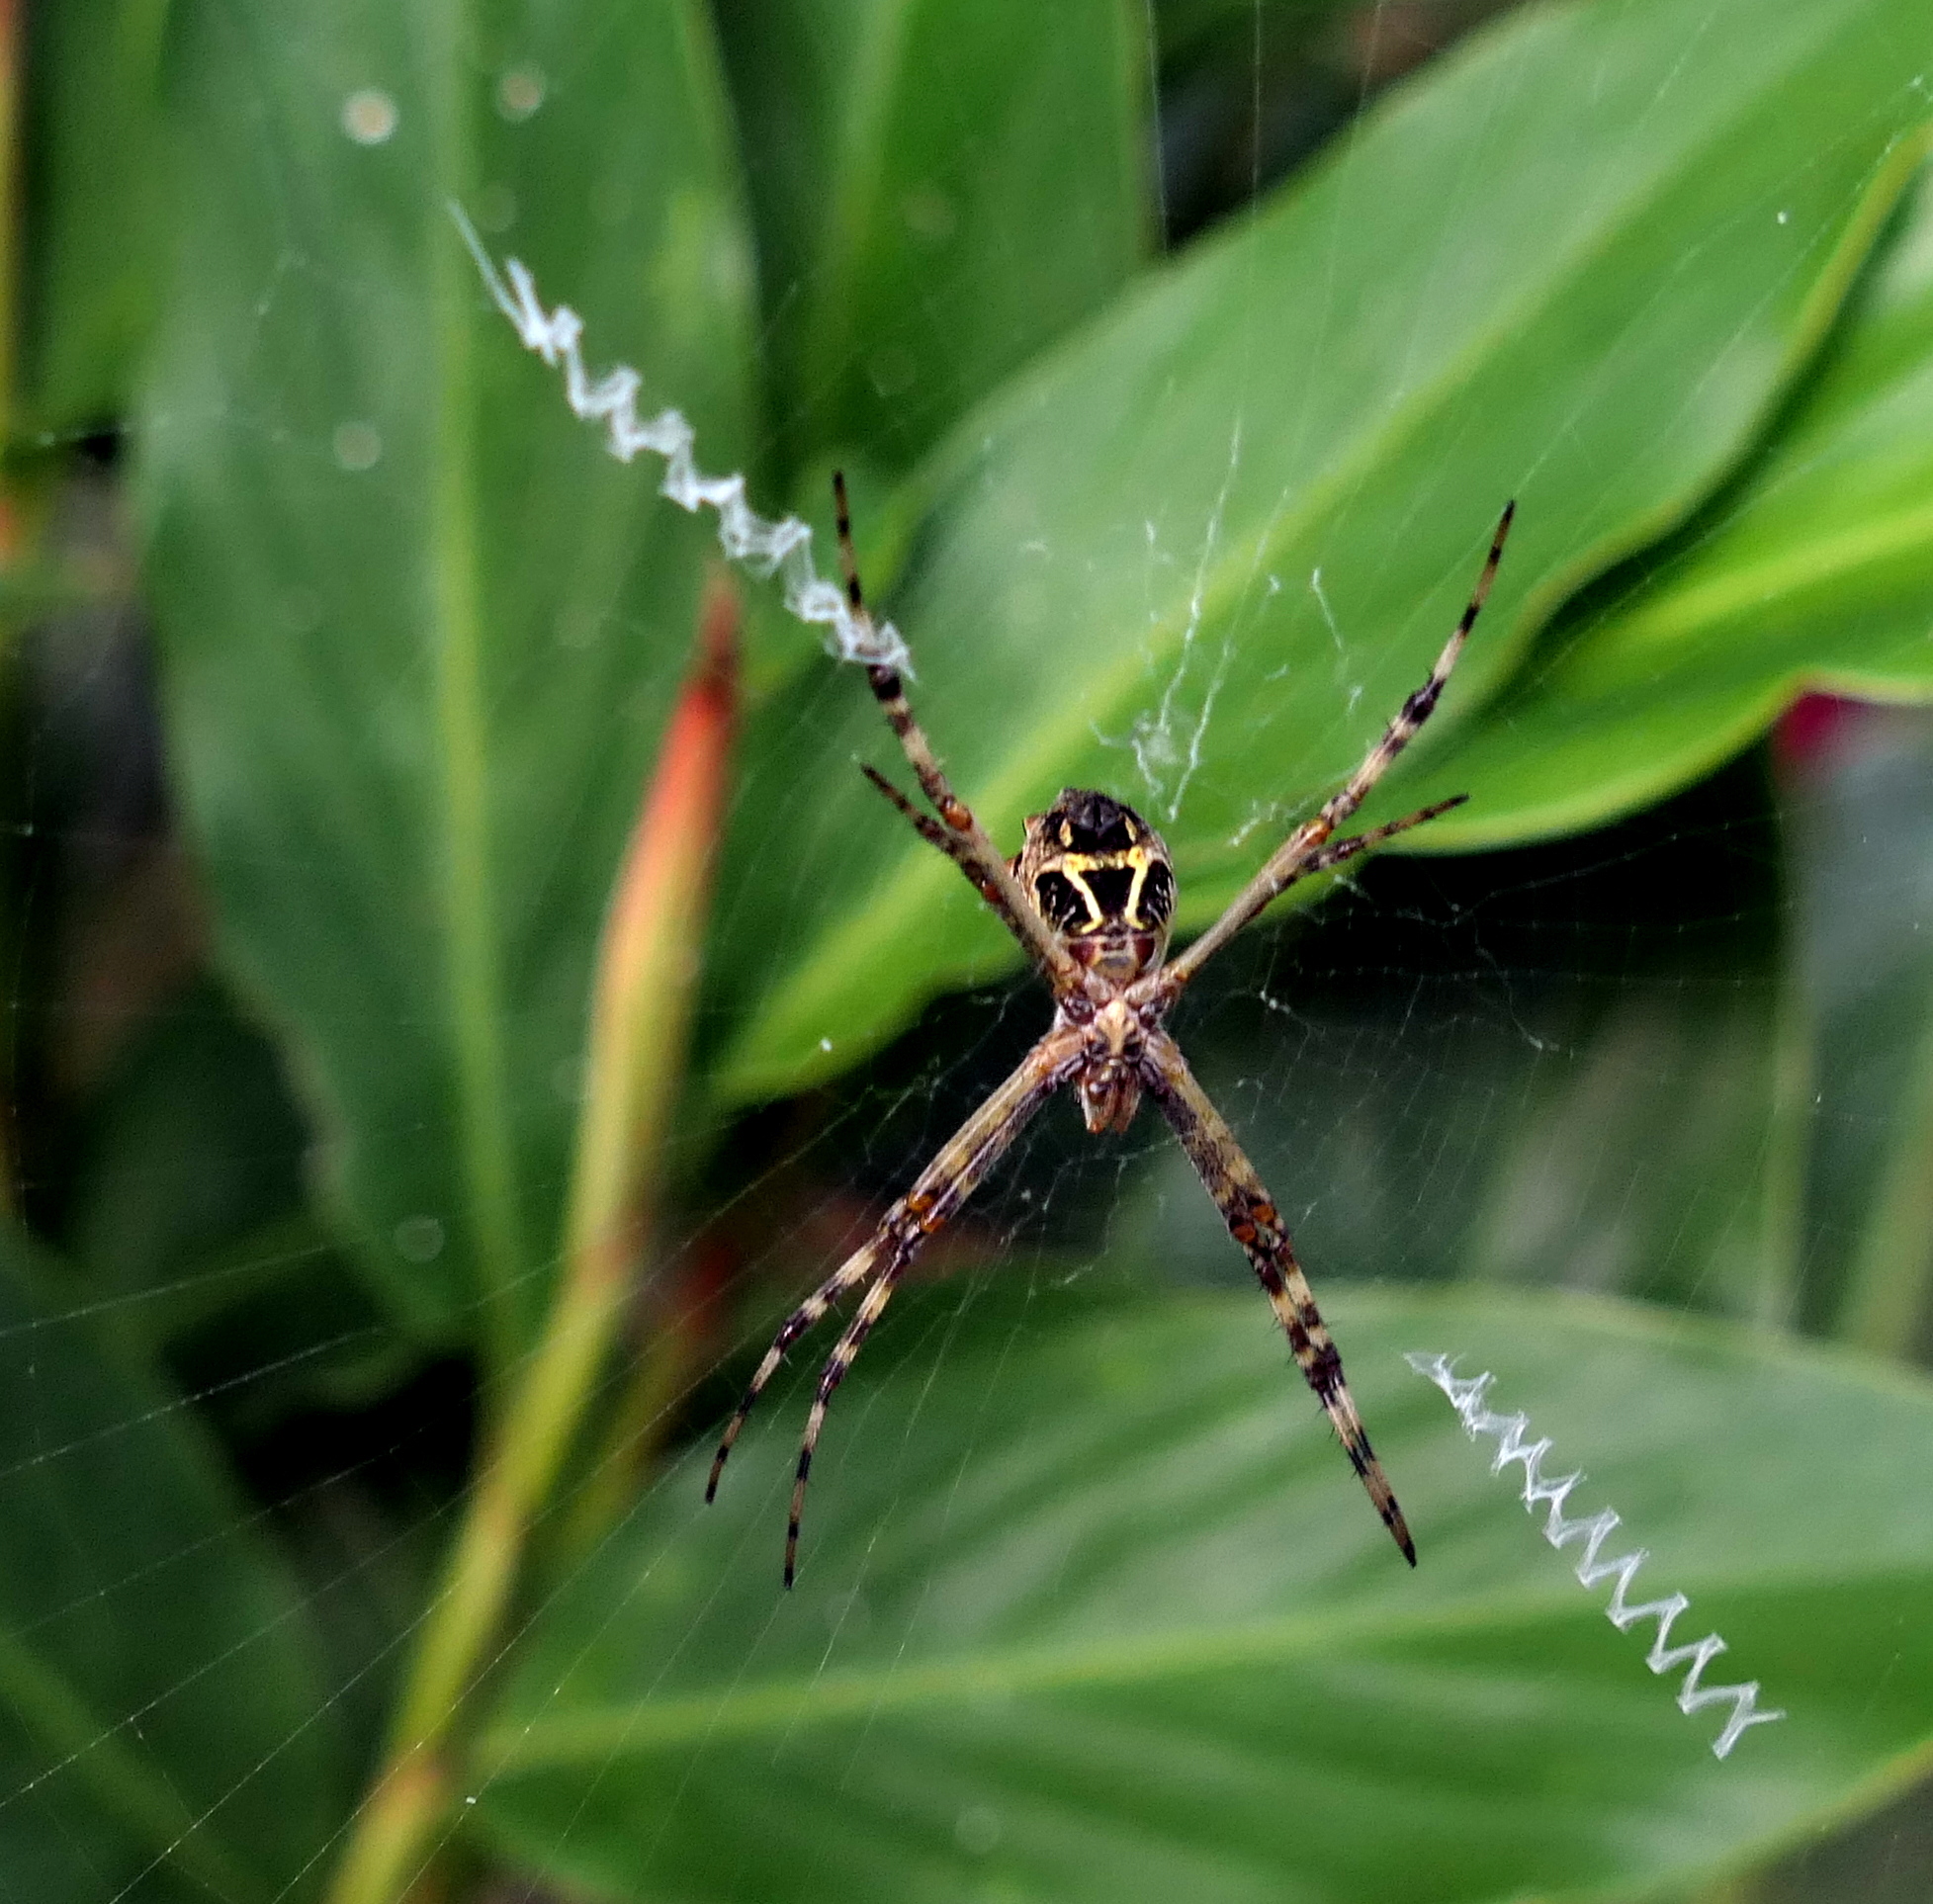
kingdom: Animalia
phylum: Arthropoda
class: Arachnida
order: Araneae
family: Araneidae
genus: Argiope
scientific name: Argiope argentata
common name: Orb weavers
